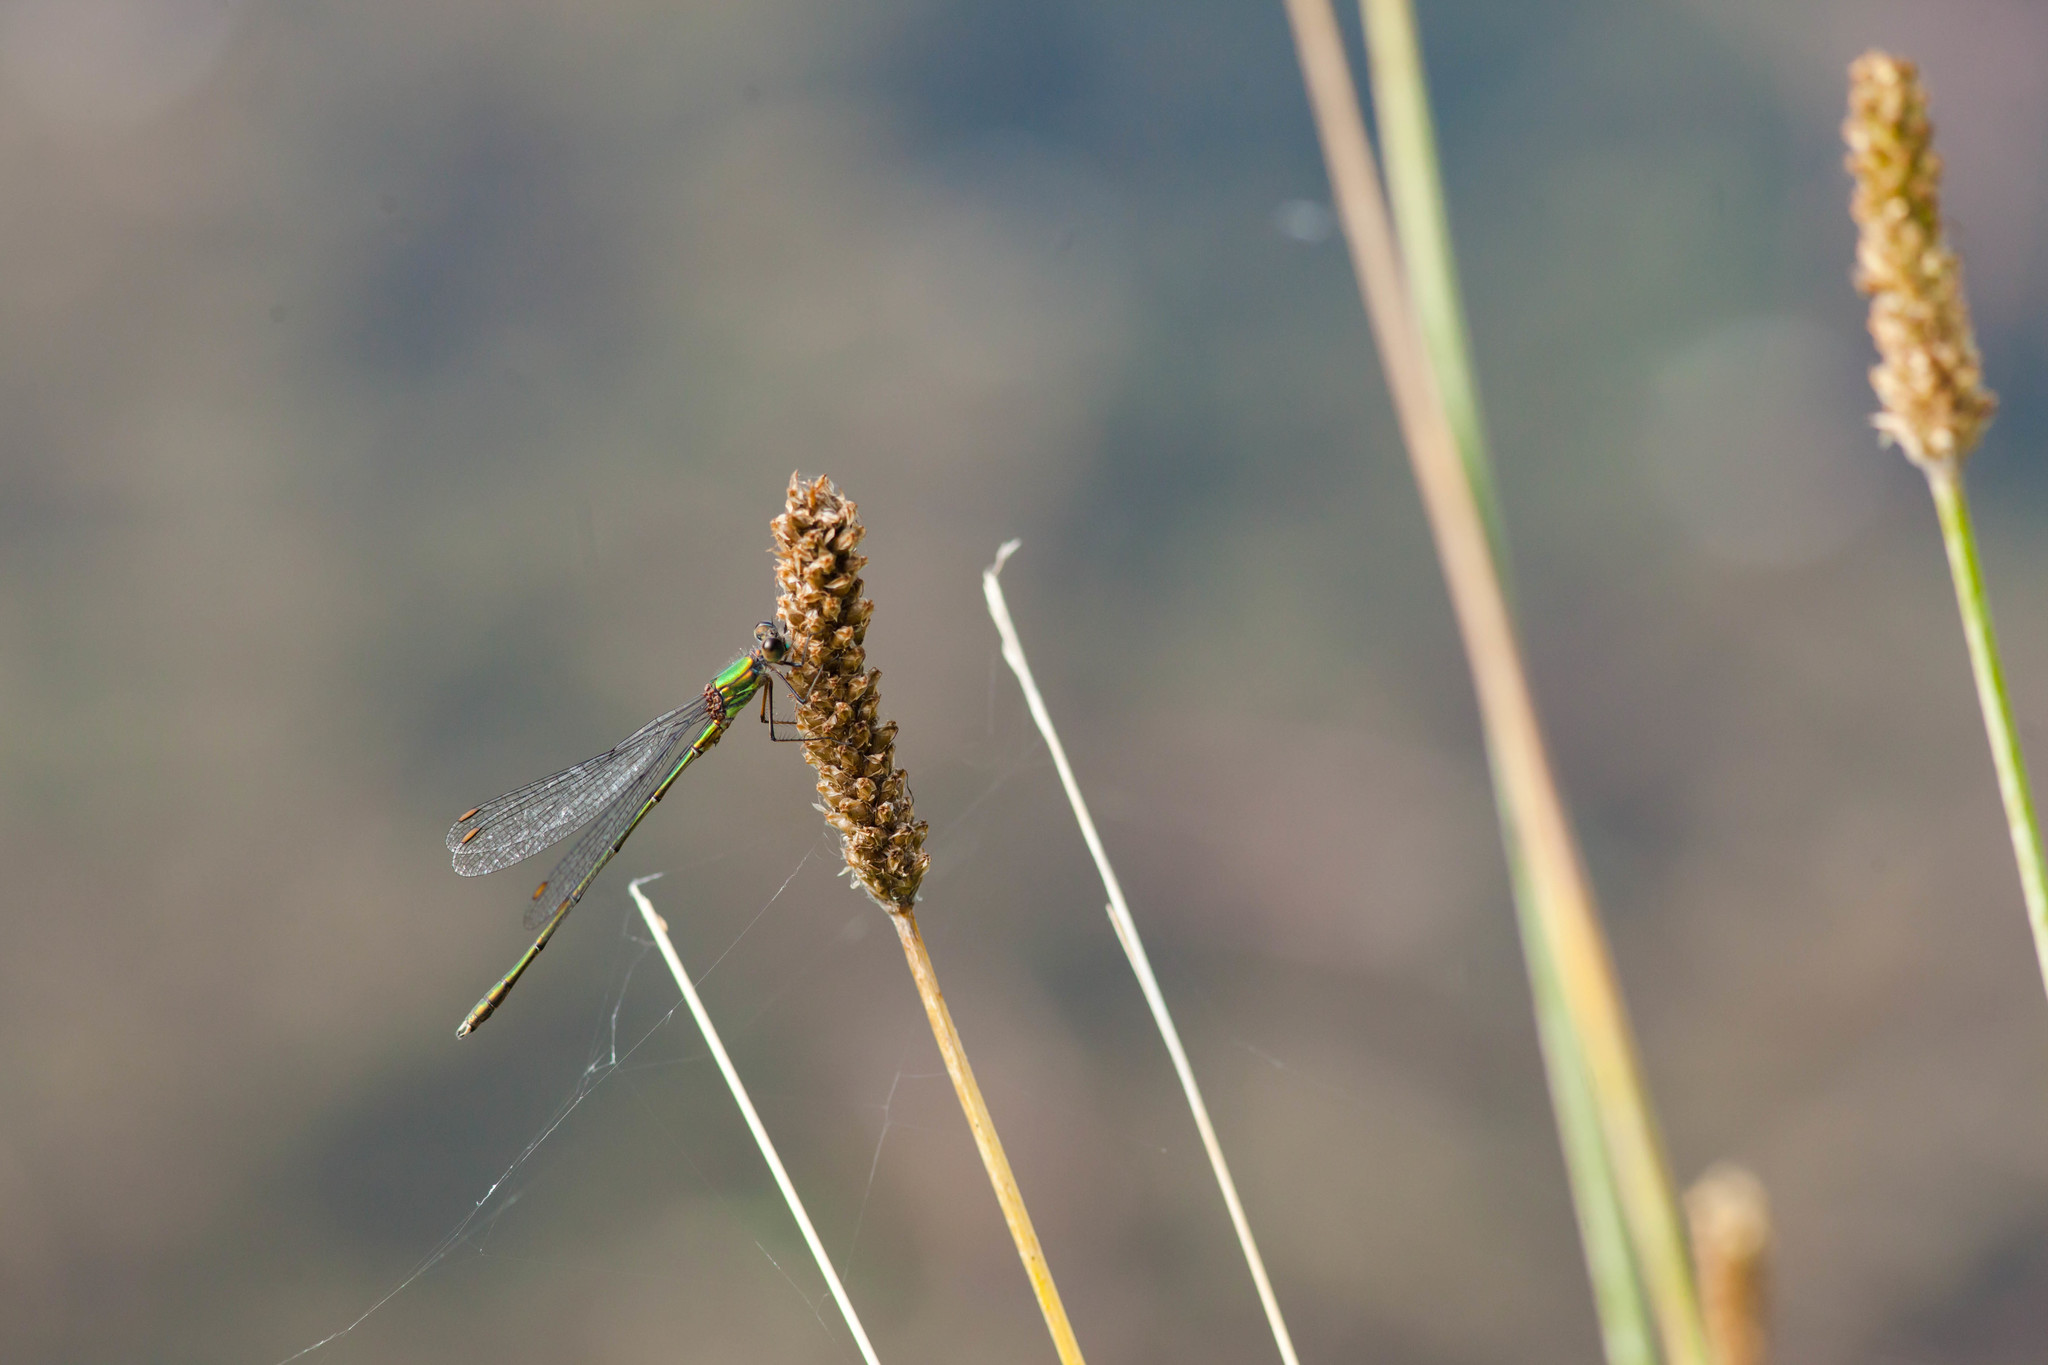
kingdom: Animalia
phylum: Arthropoda
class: Insecta
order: Odonata
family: Lestidae
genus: Chalcolestes
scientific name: Chalcolestes viridis
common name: Green emerald damselfly
